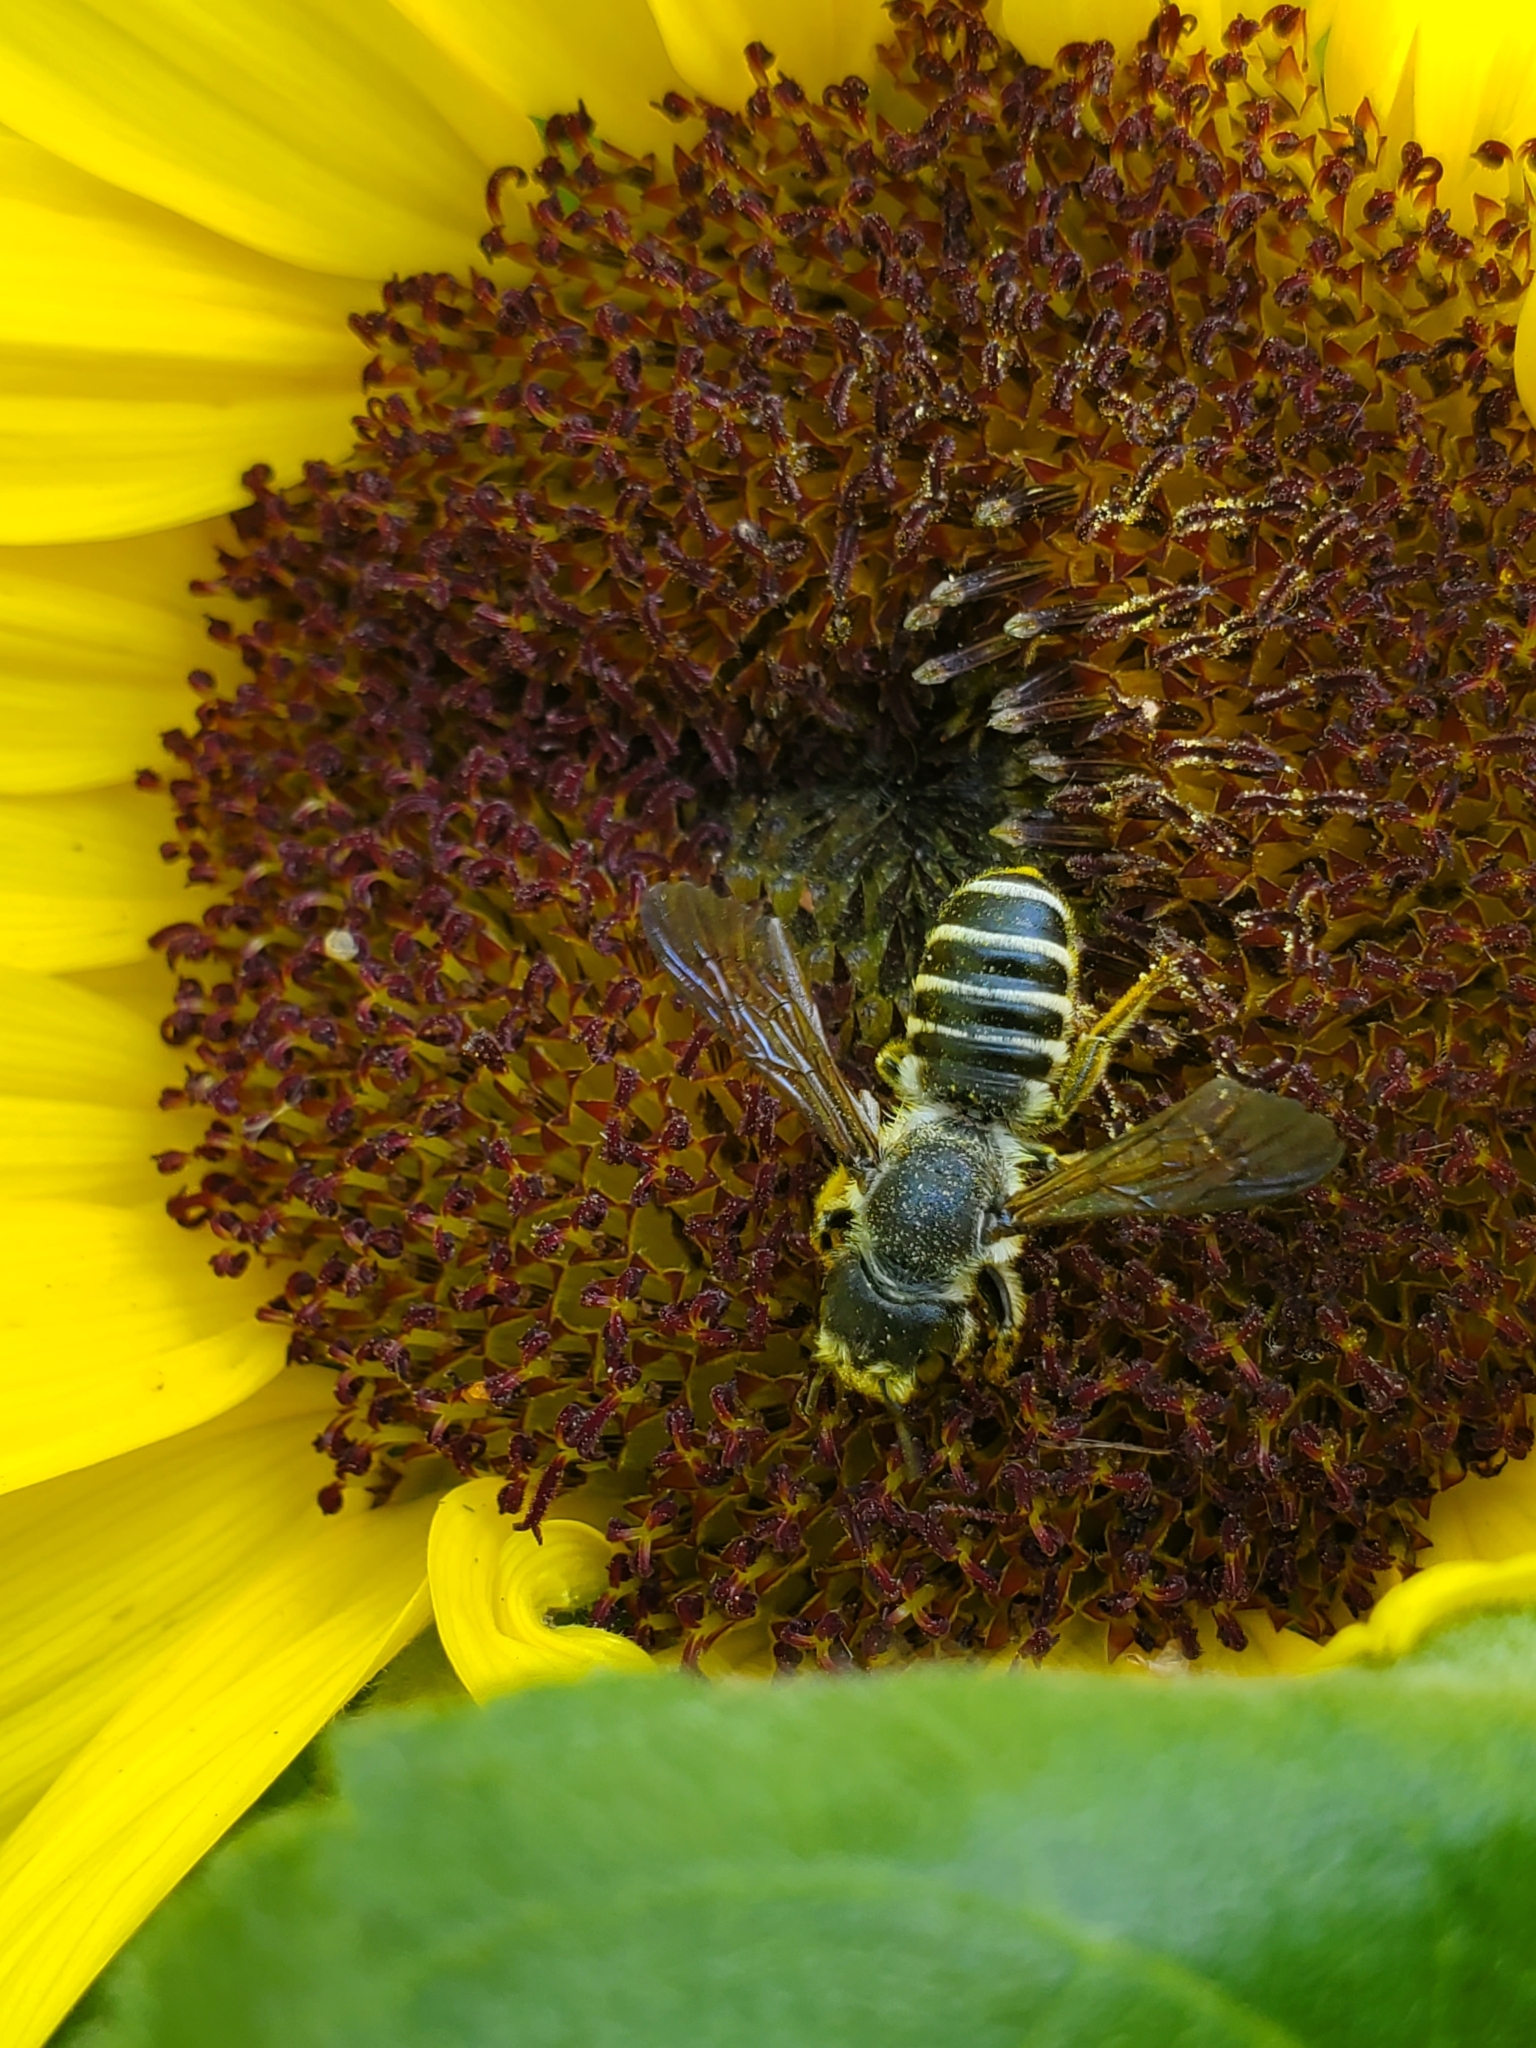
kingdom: Animalia
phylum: Arthropoda
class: Insecta
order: Hymenoptera
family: Megachilidae
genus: Megachile
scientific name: Megachile pugnata
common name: Pugnacious leafcutter bee
